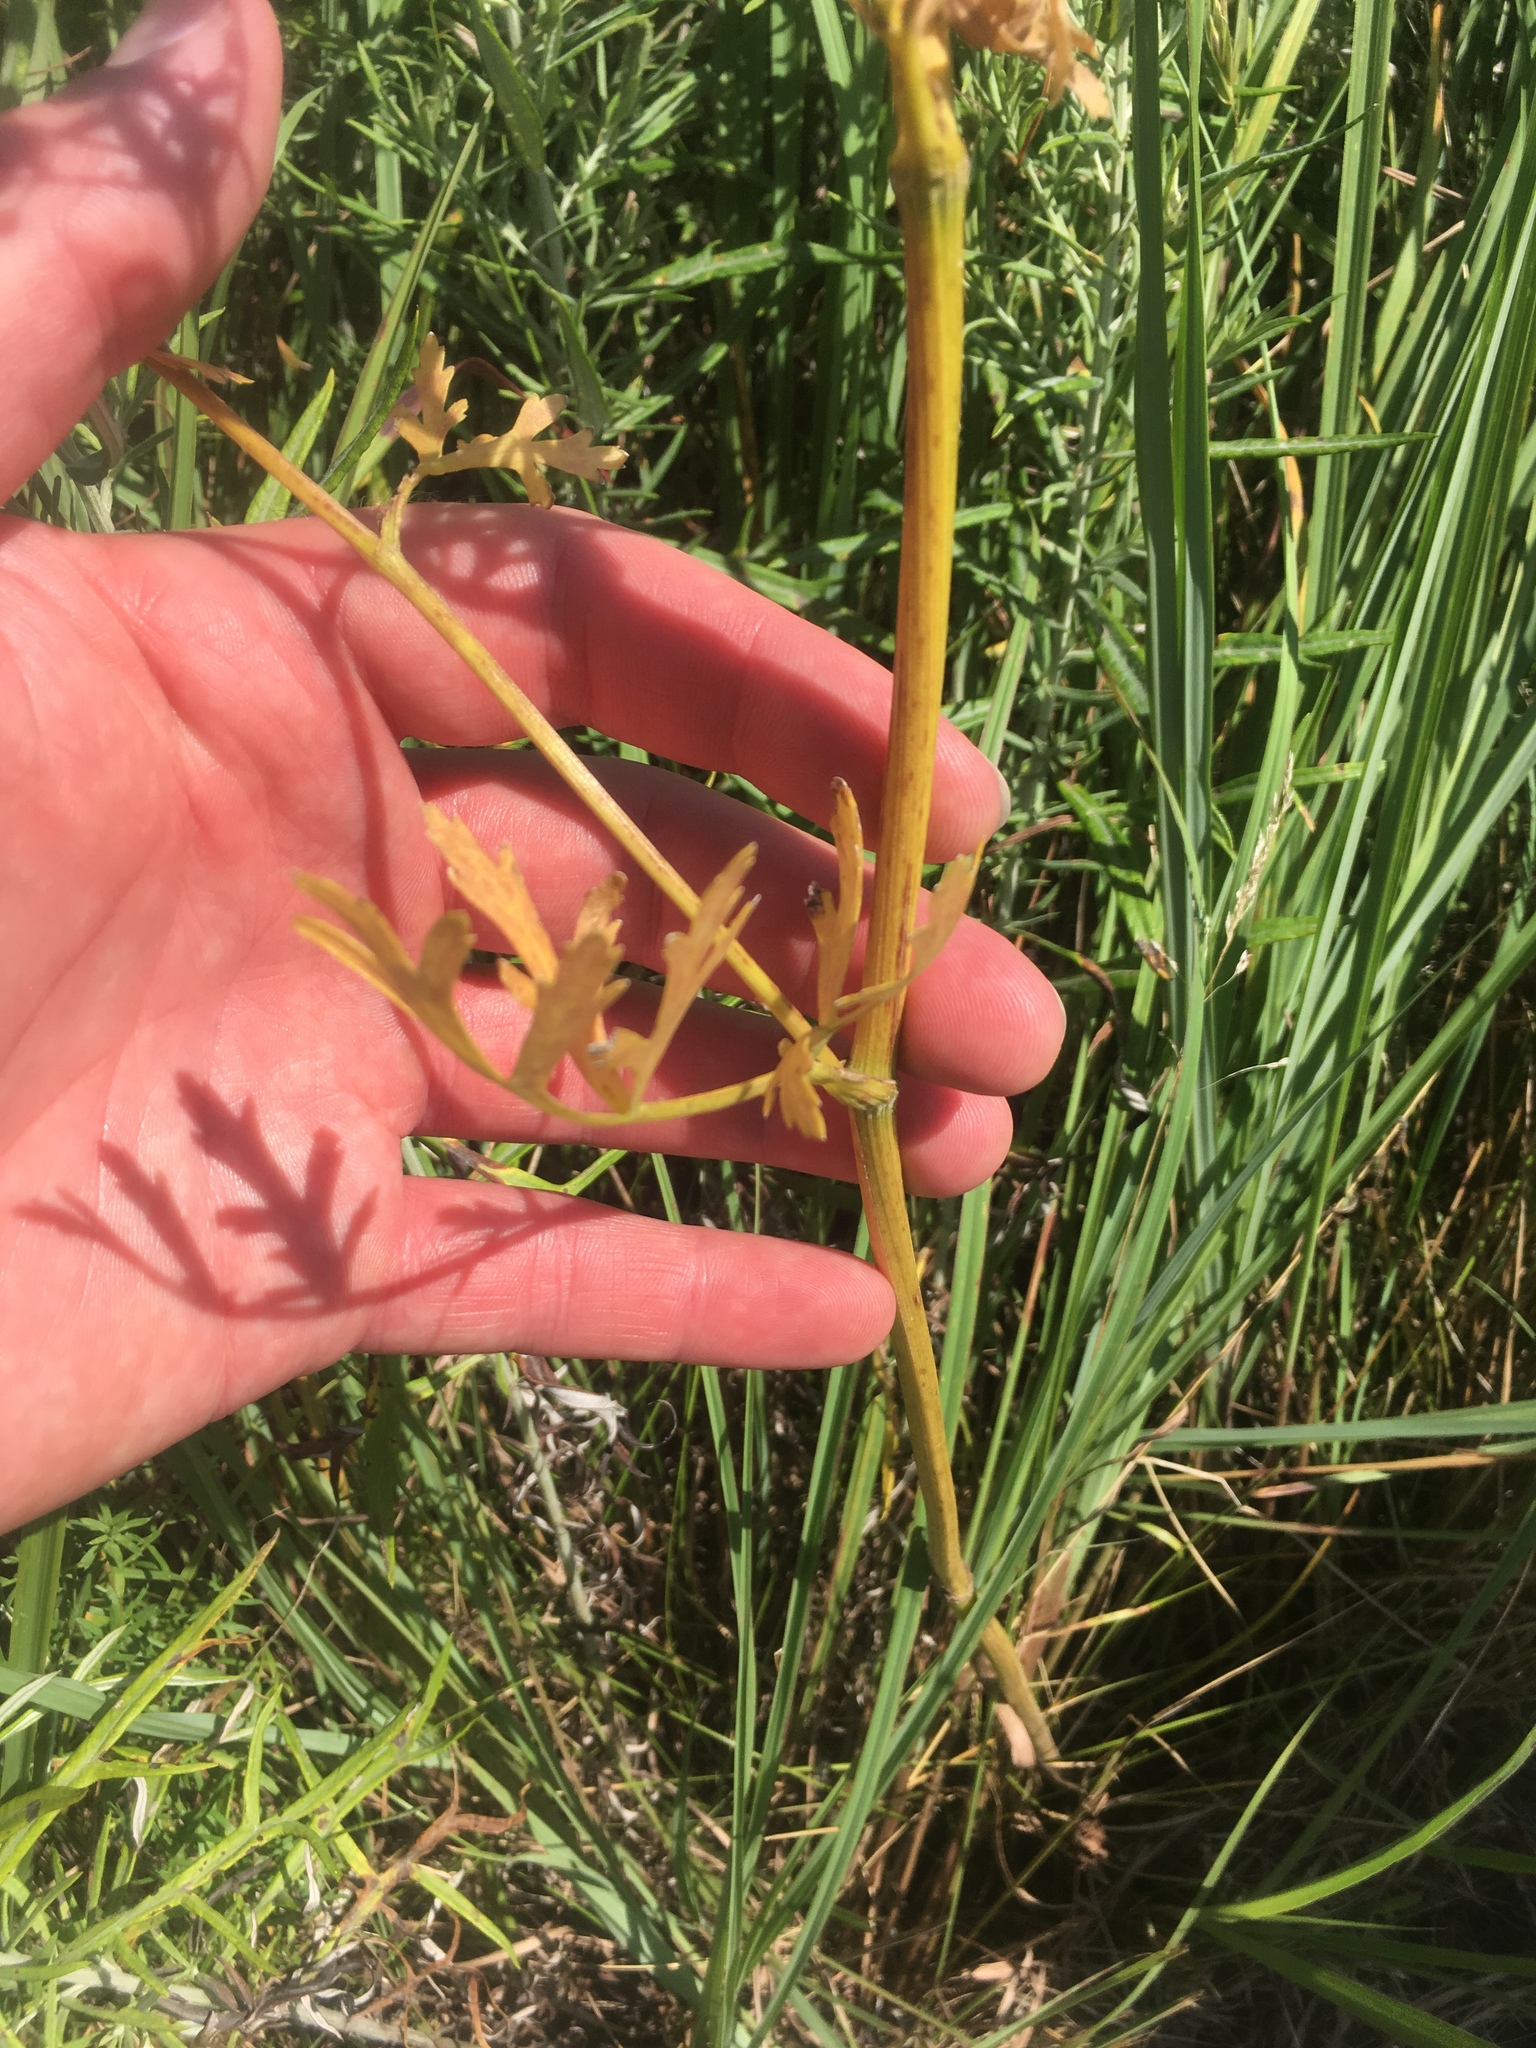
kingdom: Plantae
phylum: Tracheophyta
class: Magnoliopsida
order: Apiales
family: Apiaceae
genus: Polytaenia
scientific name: Polytaenia nuttallii
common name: Prairie-parsley
